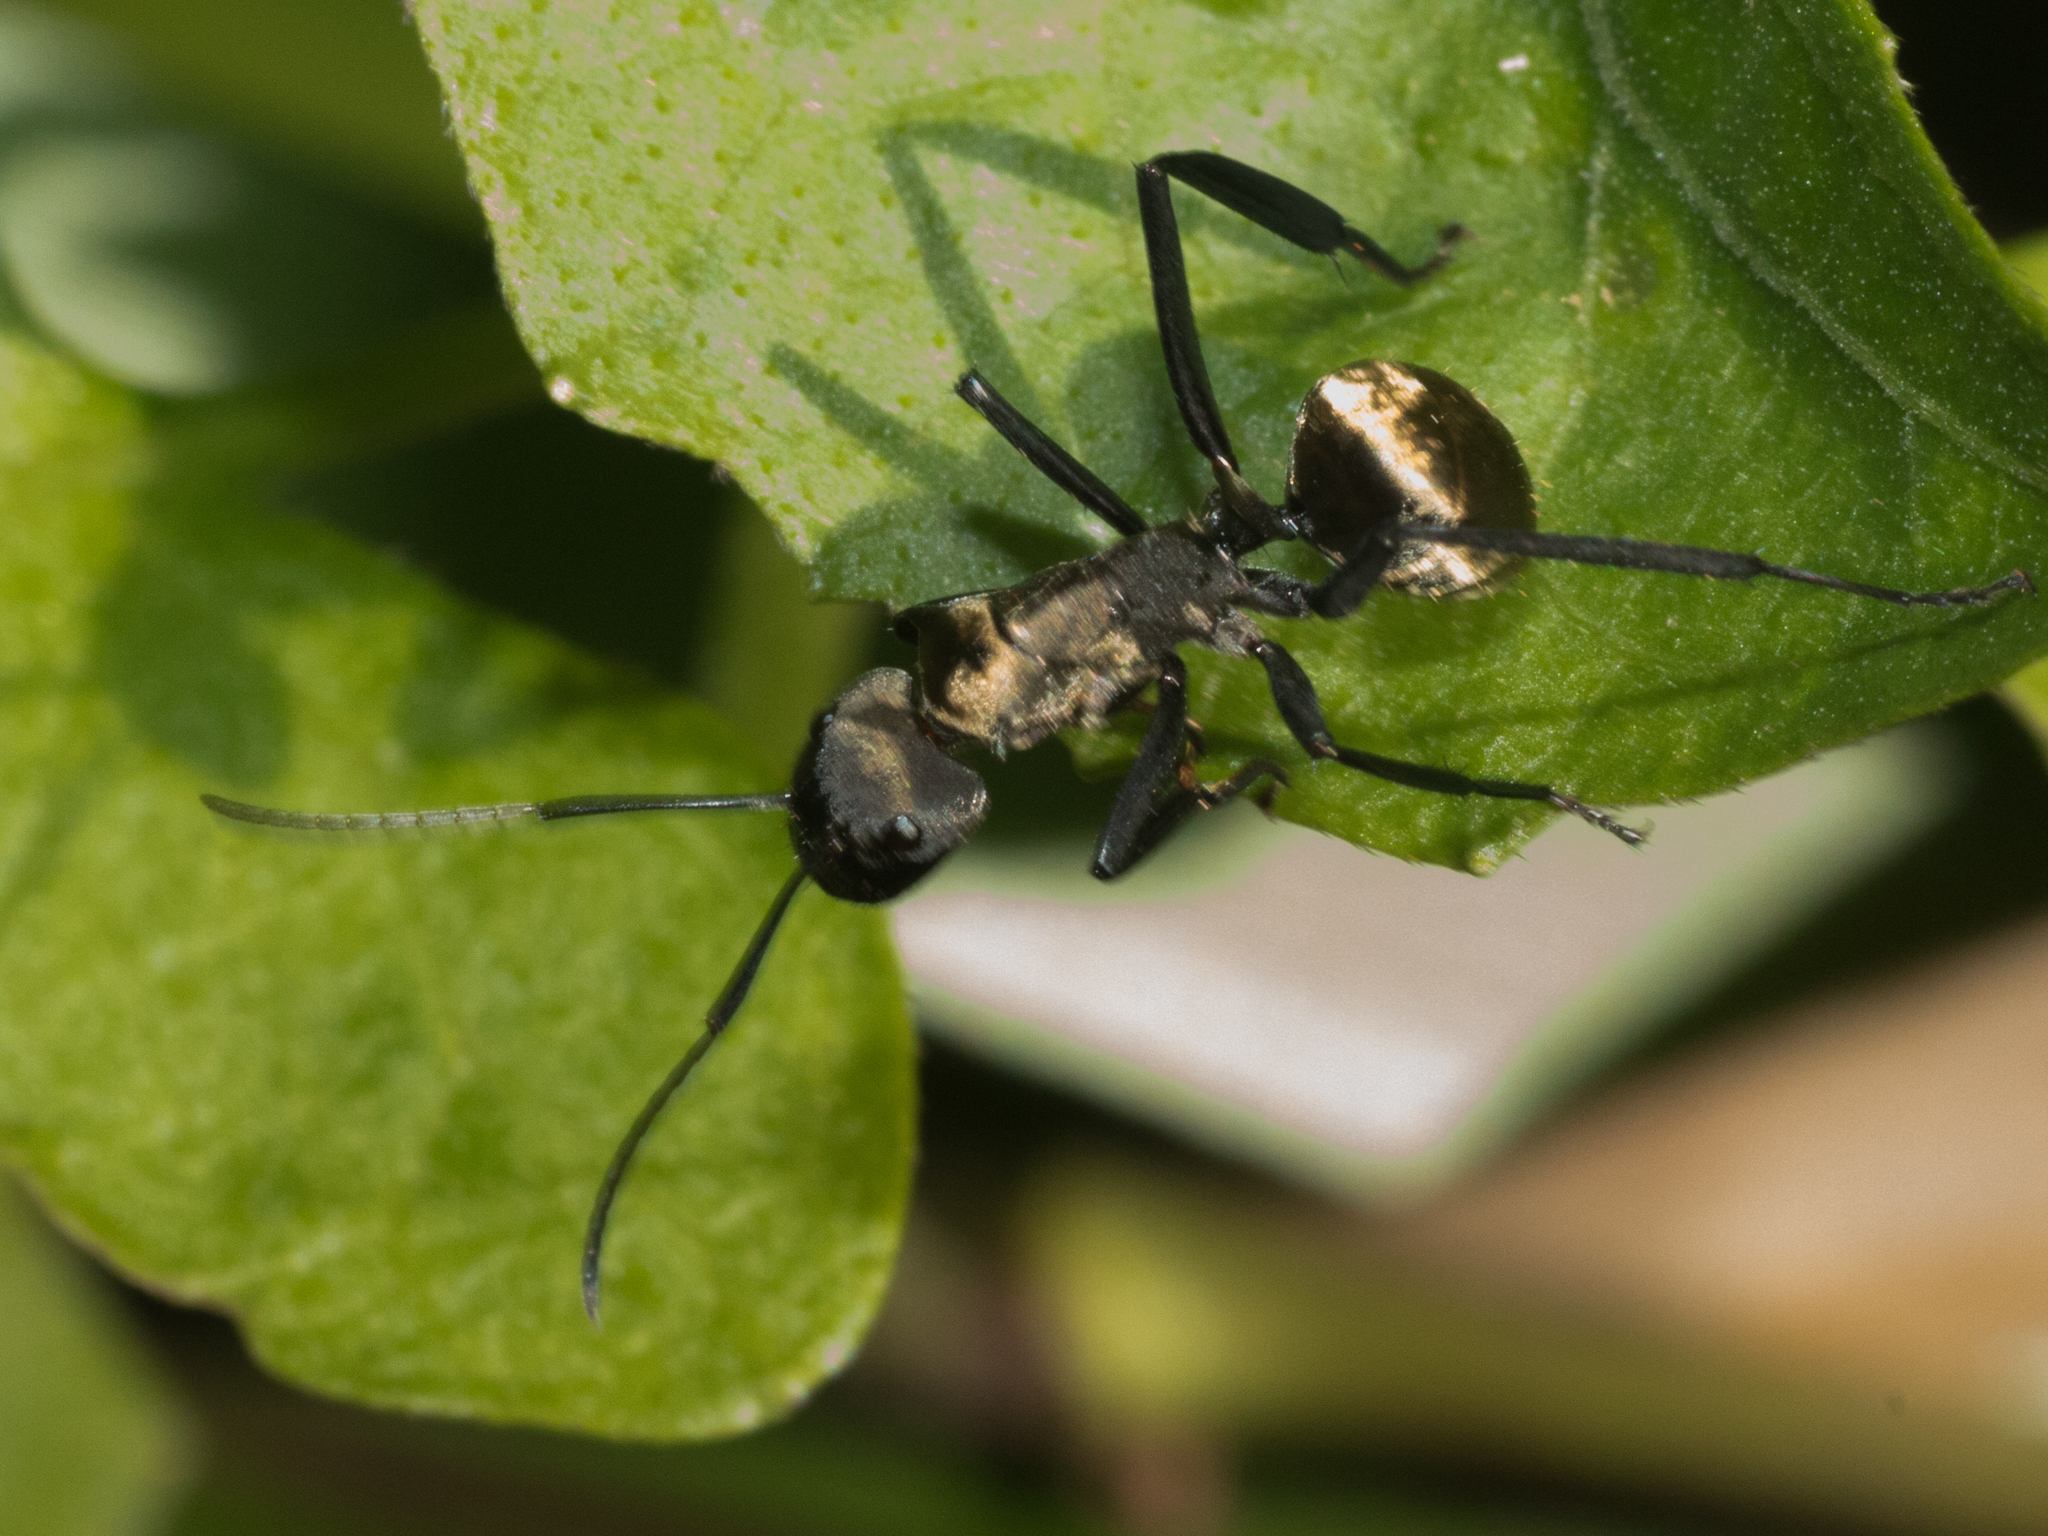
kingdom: Animalia
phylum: Arthropoda
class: Insecta
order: Hymenoptera
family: Formicidae
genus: Camponotus
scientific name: Camponotus sericeiventris
